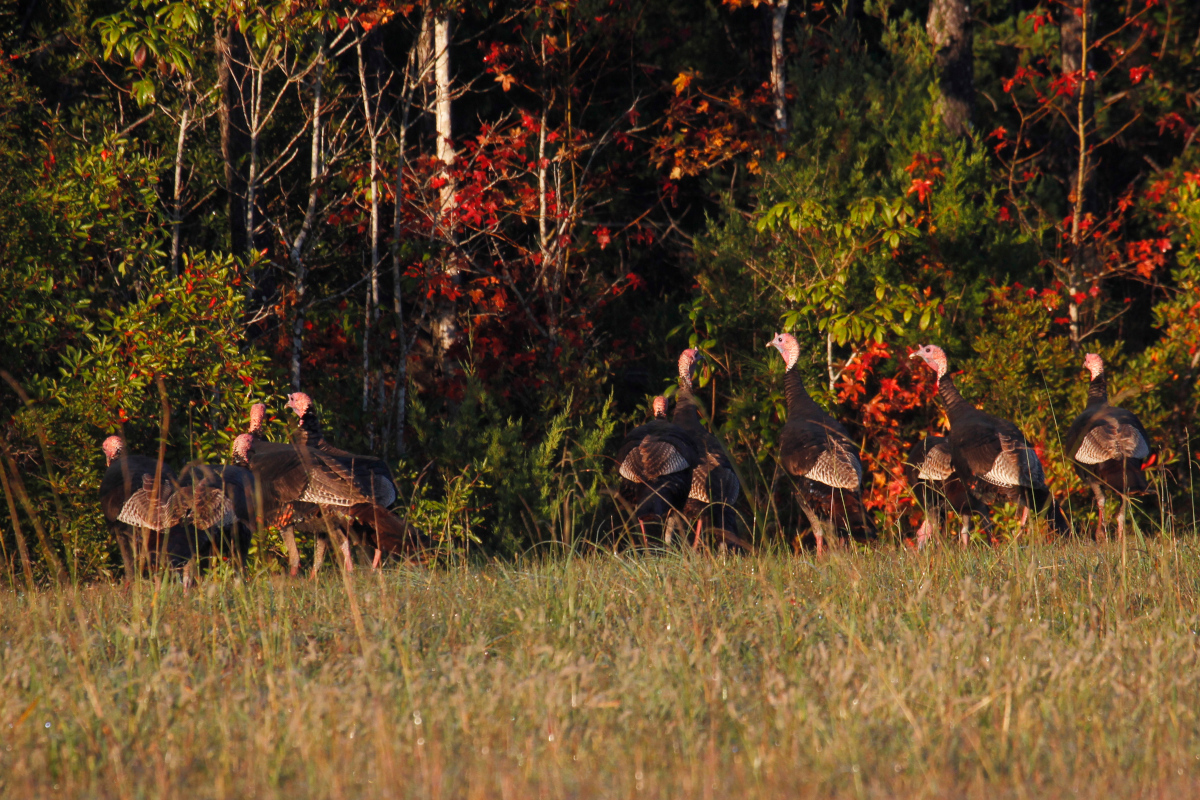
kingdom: Animalia
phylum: Chordata
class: Aves
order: Galliformes
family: Phasianidae
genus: Meleagris
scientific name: Meleagris gallopavo
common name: Wild turkey
